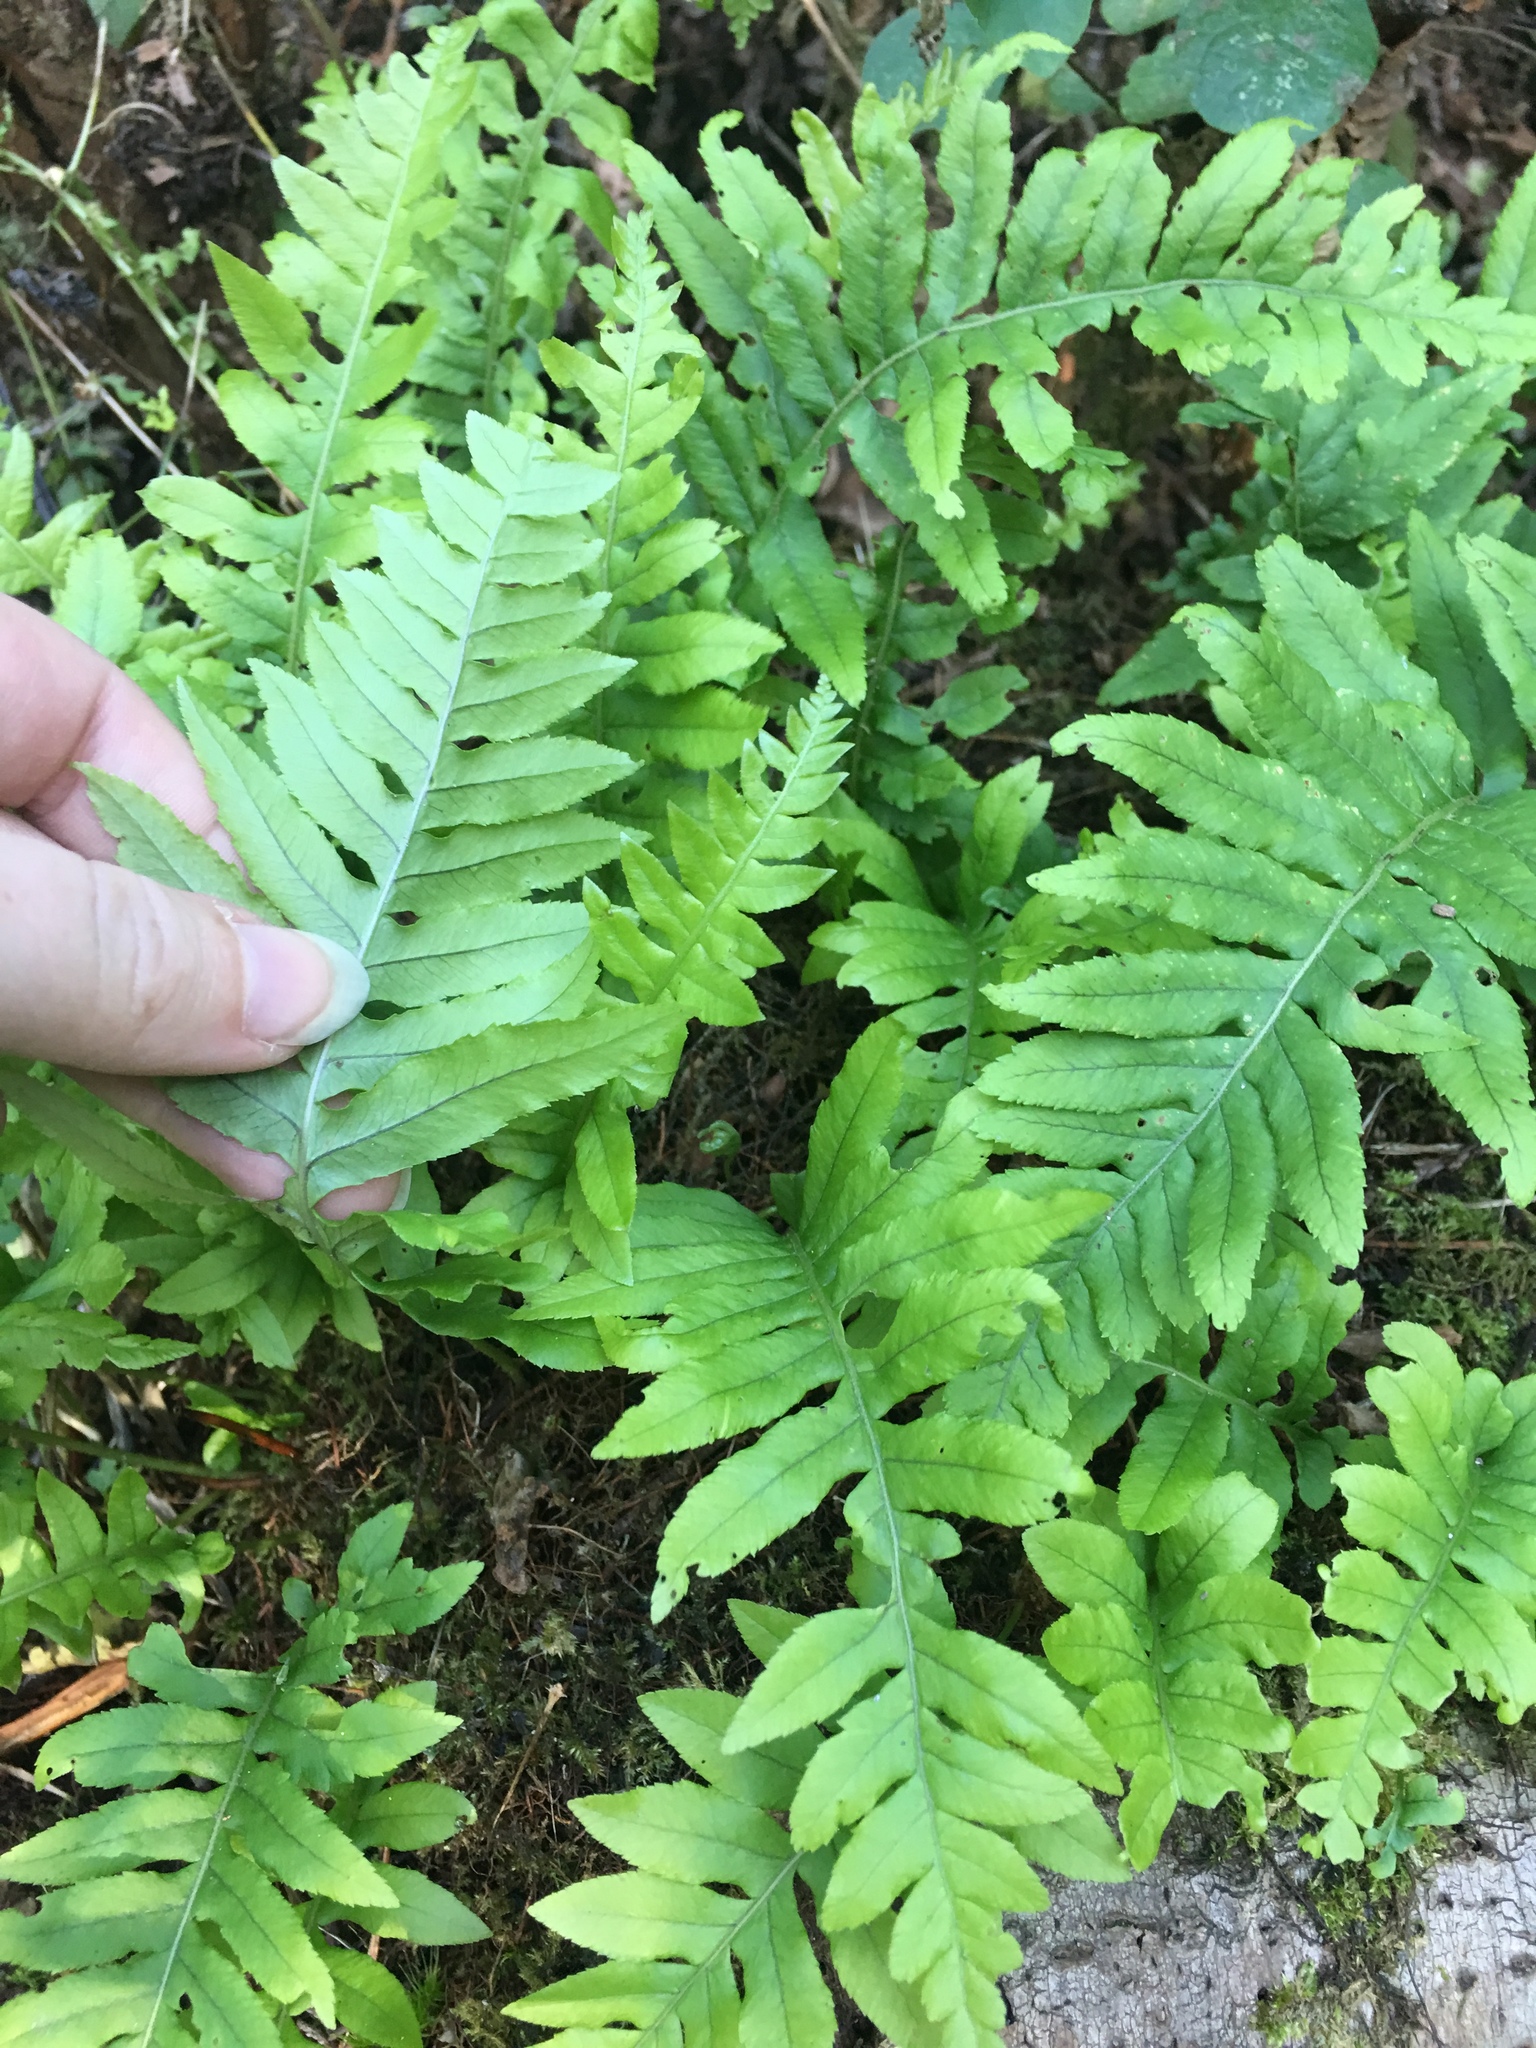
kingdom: Plantae
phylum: Tracheophyta
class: Polypodiopsida
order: Polypodiales
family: Polypodiaceae
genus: Polypodium
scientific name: Polypodium glycyrrhiza
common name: Licorice fern
